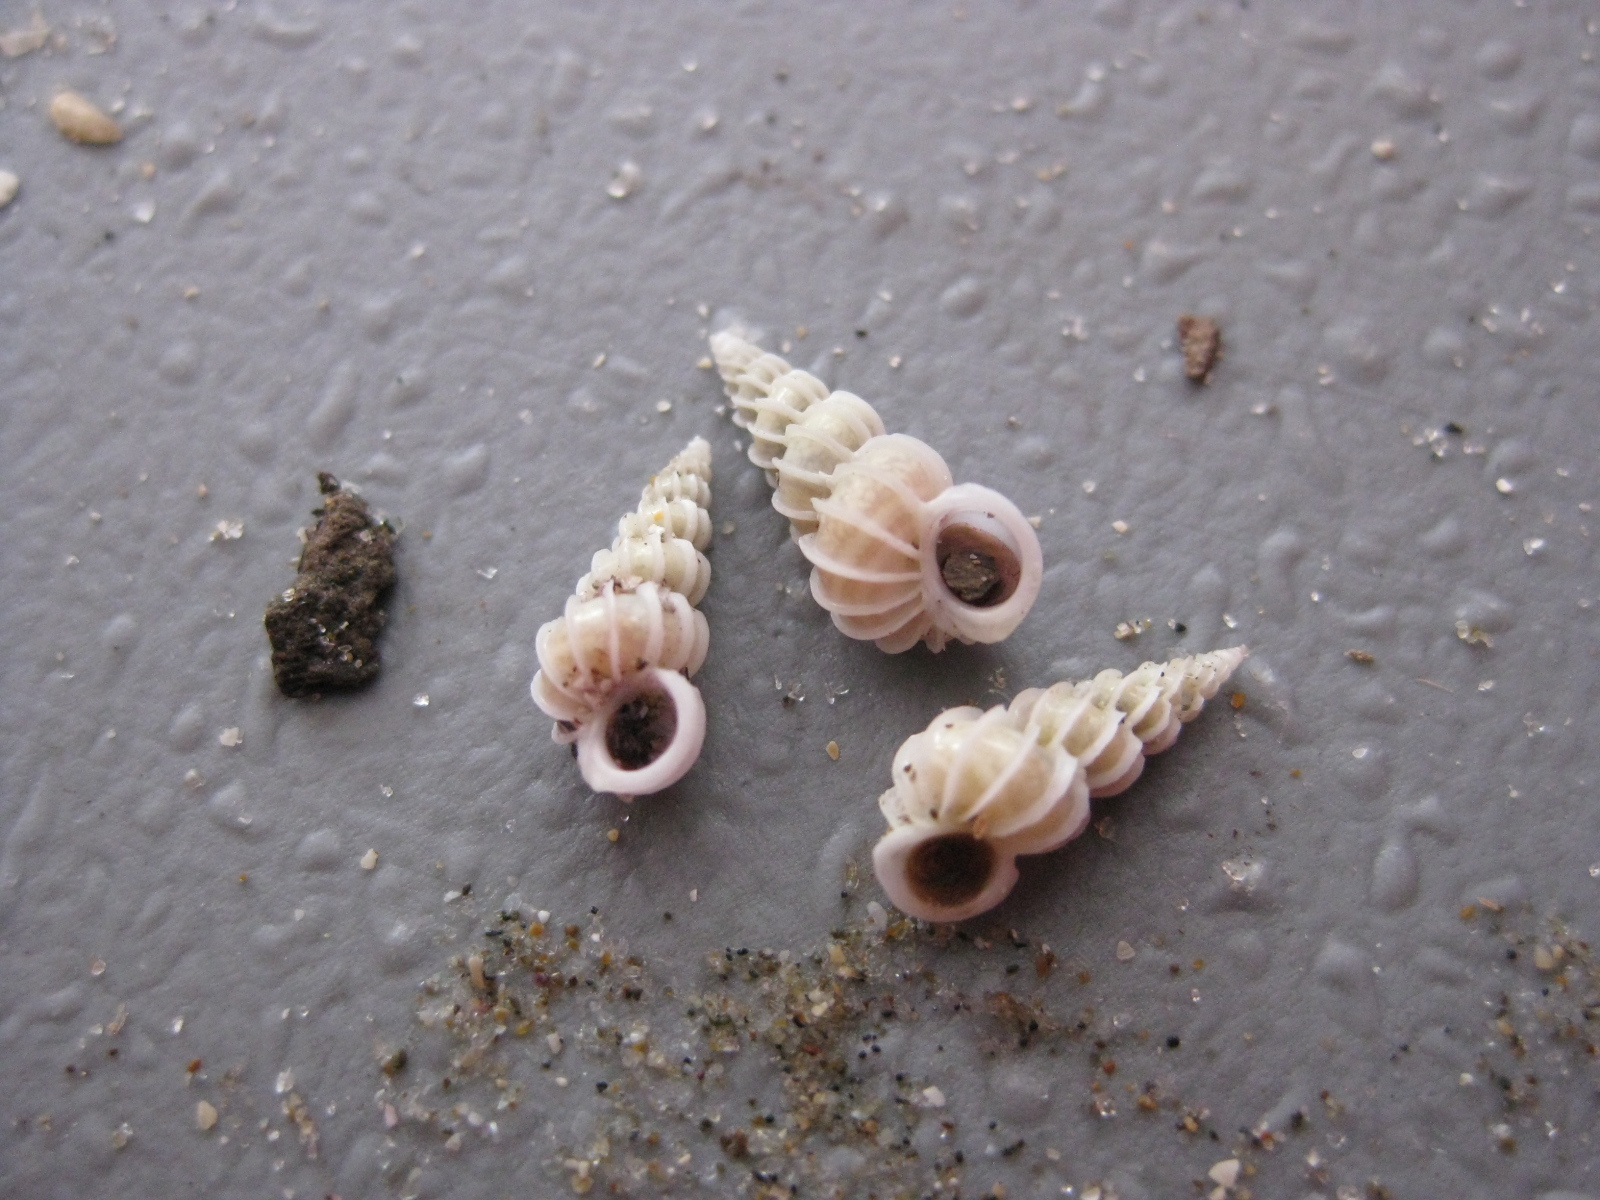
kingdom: Animalia
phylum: Mollusca
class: Gastropoda
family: Epitoniidae
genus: Epitonium
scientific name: Epitonium minorum
